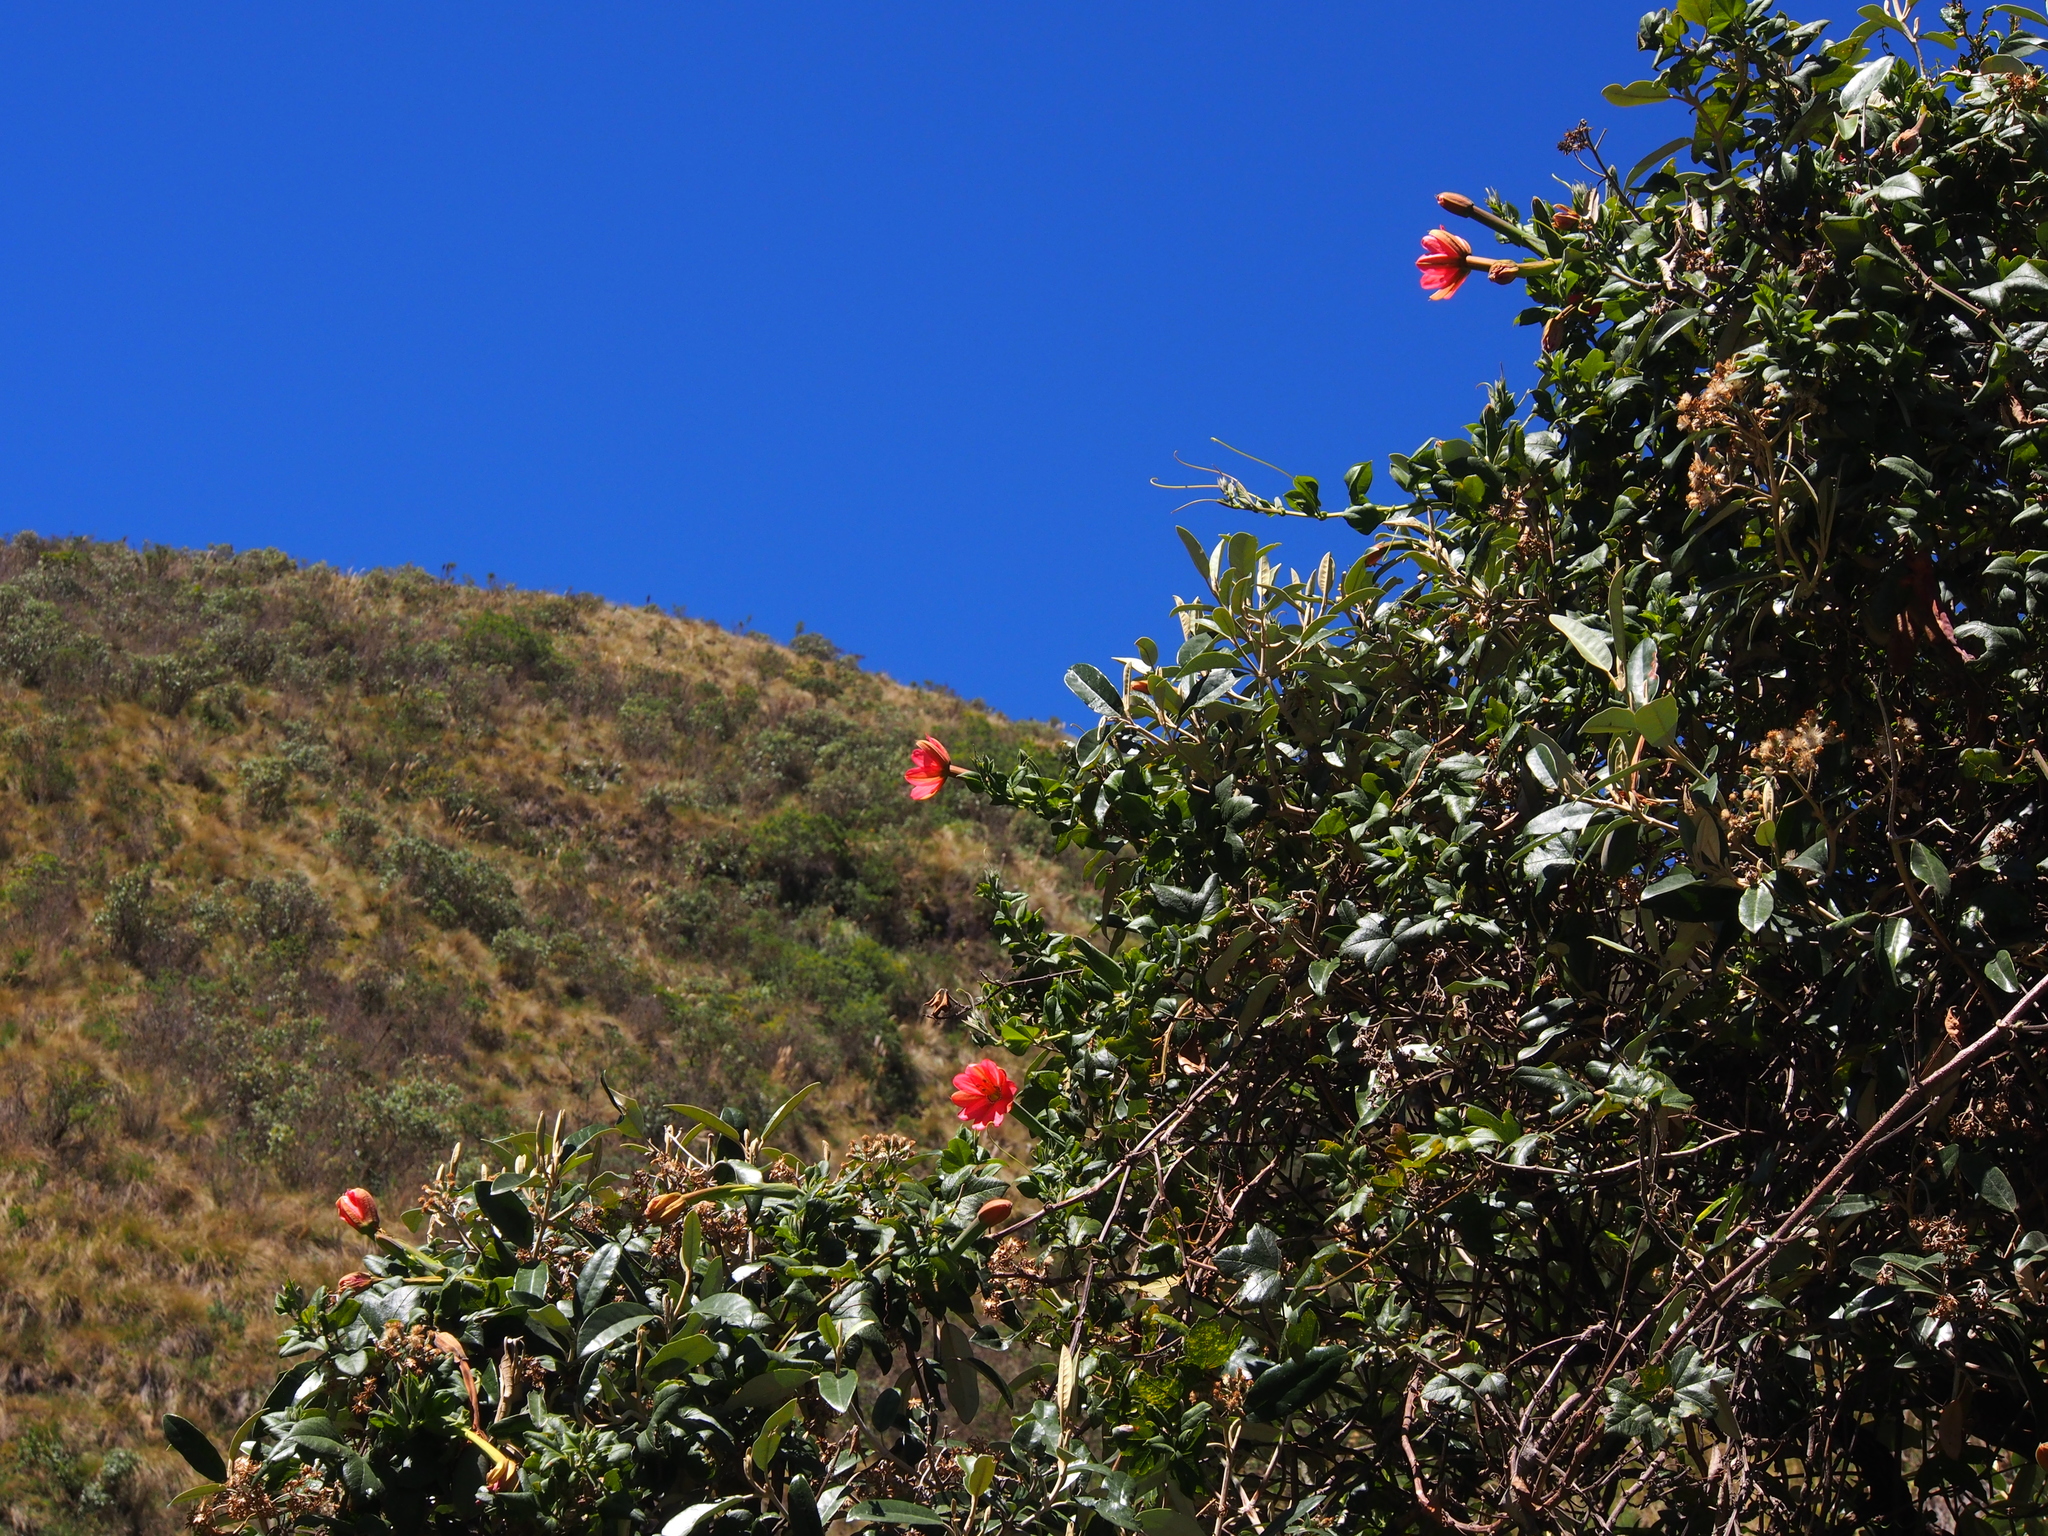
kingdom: Plantae
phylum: Tracheophyta
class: Magnoliopsida
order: Malpighiales
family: Passifloraceae
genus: Passiflora
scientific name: Passiflora mixta
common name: Passion flower
